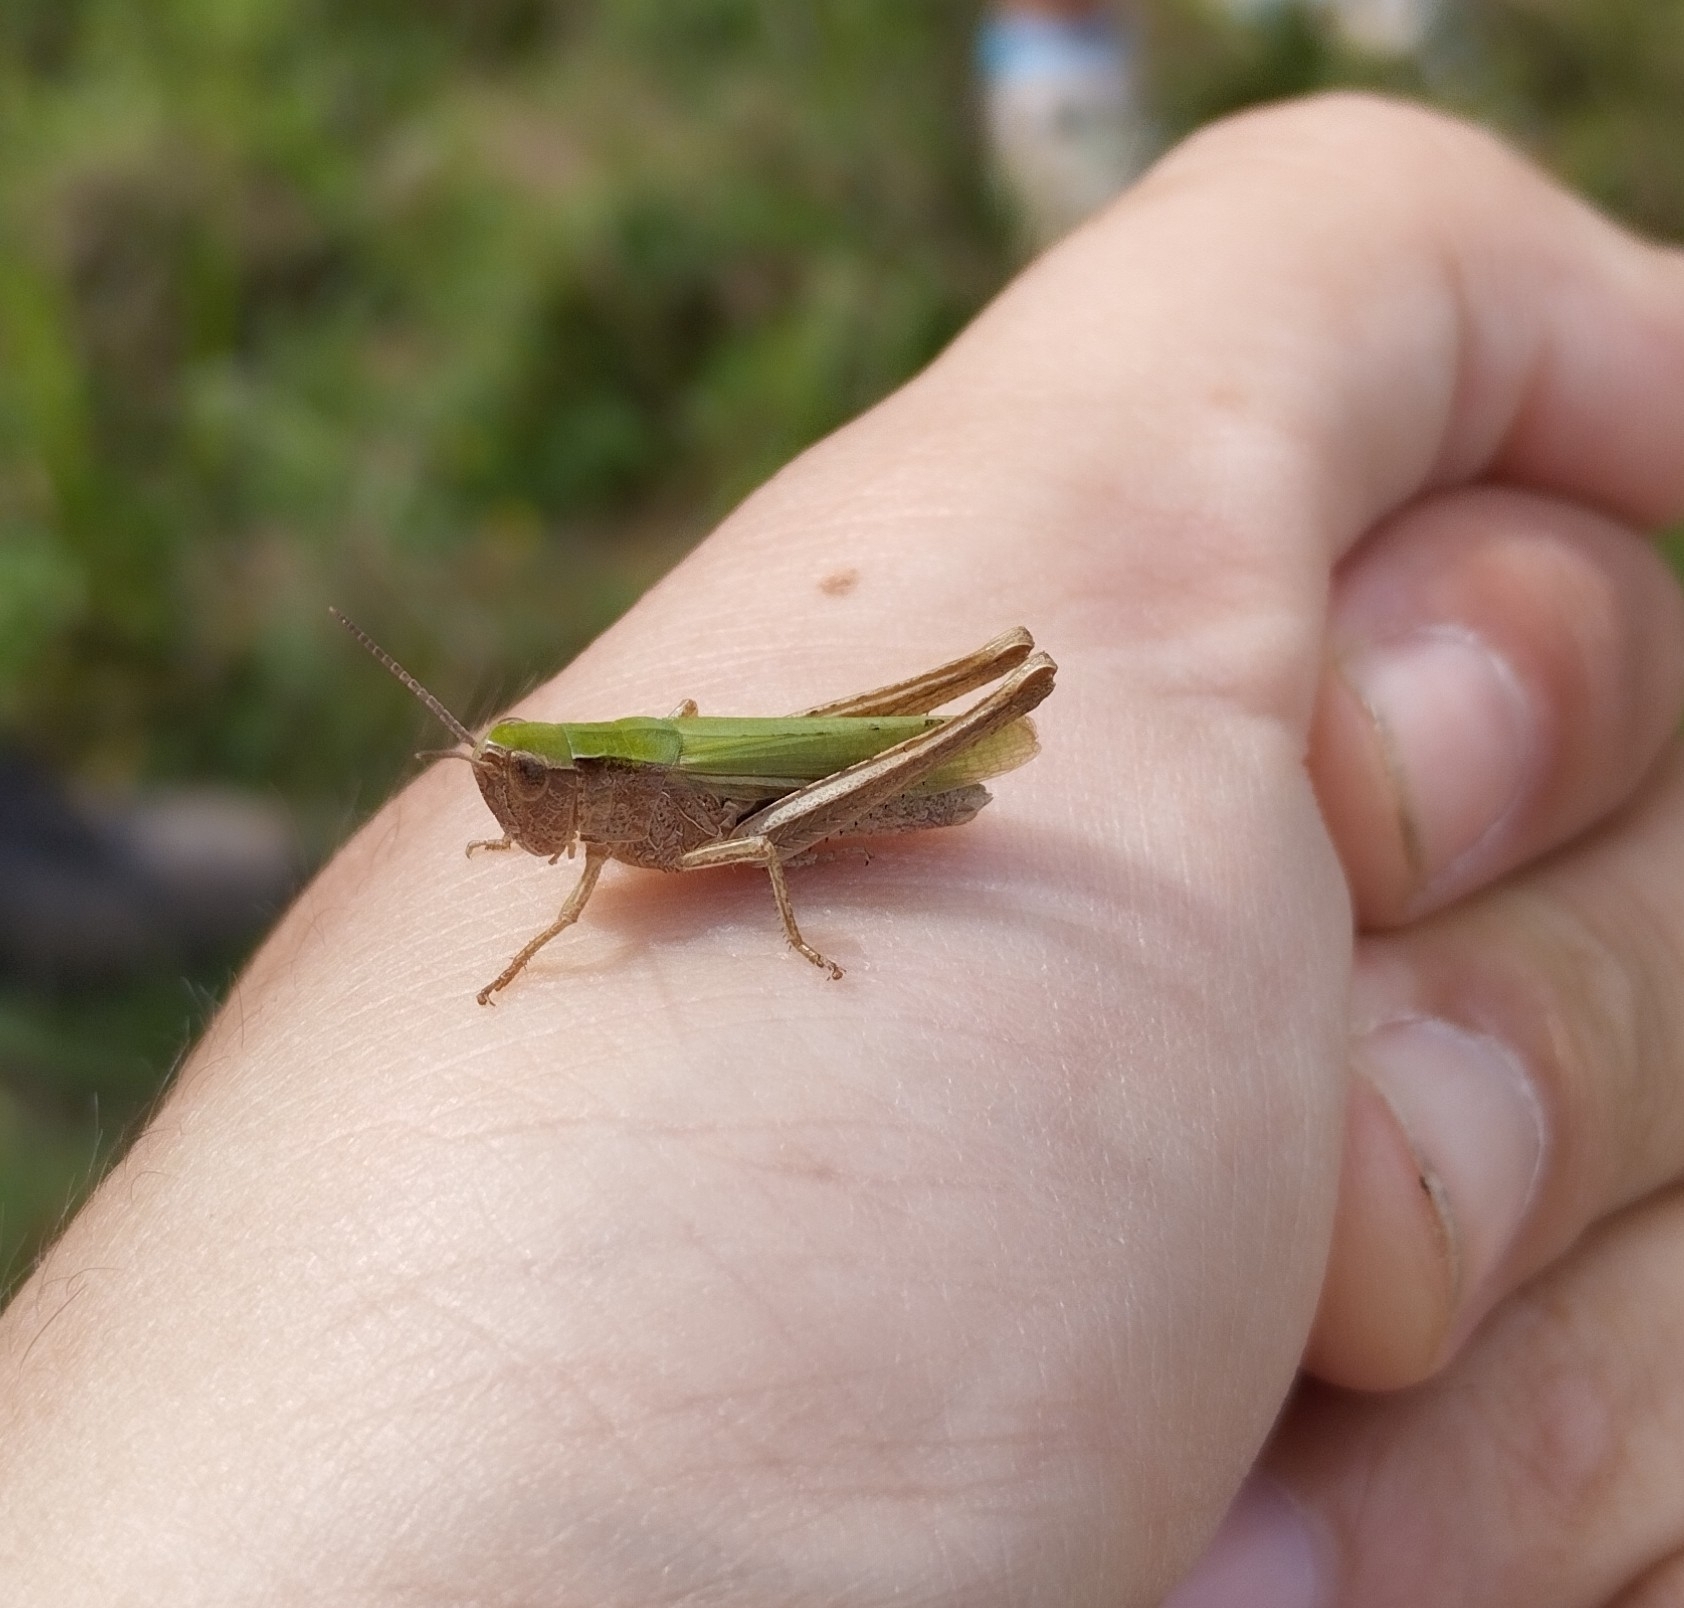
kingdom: Animalia
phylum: Arthropoda
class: Insecta
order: Orthoptera
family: Acrididae
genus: Chorthippus
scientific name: Chorthippus dorsatus
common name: Steppe grasshopper
